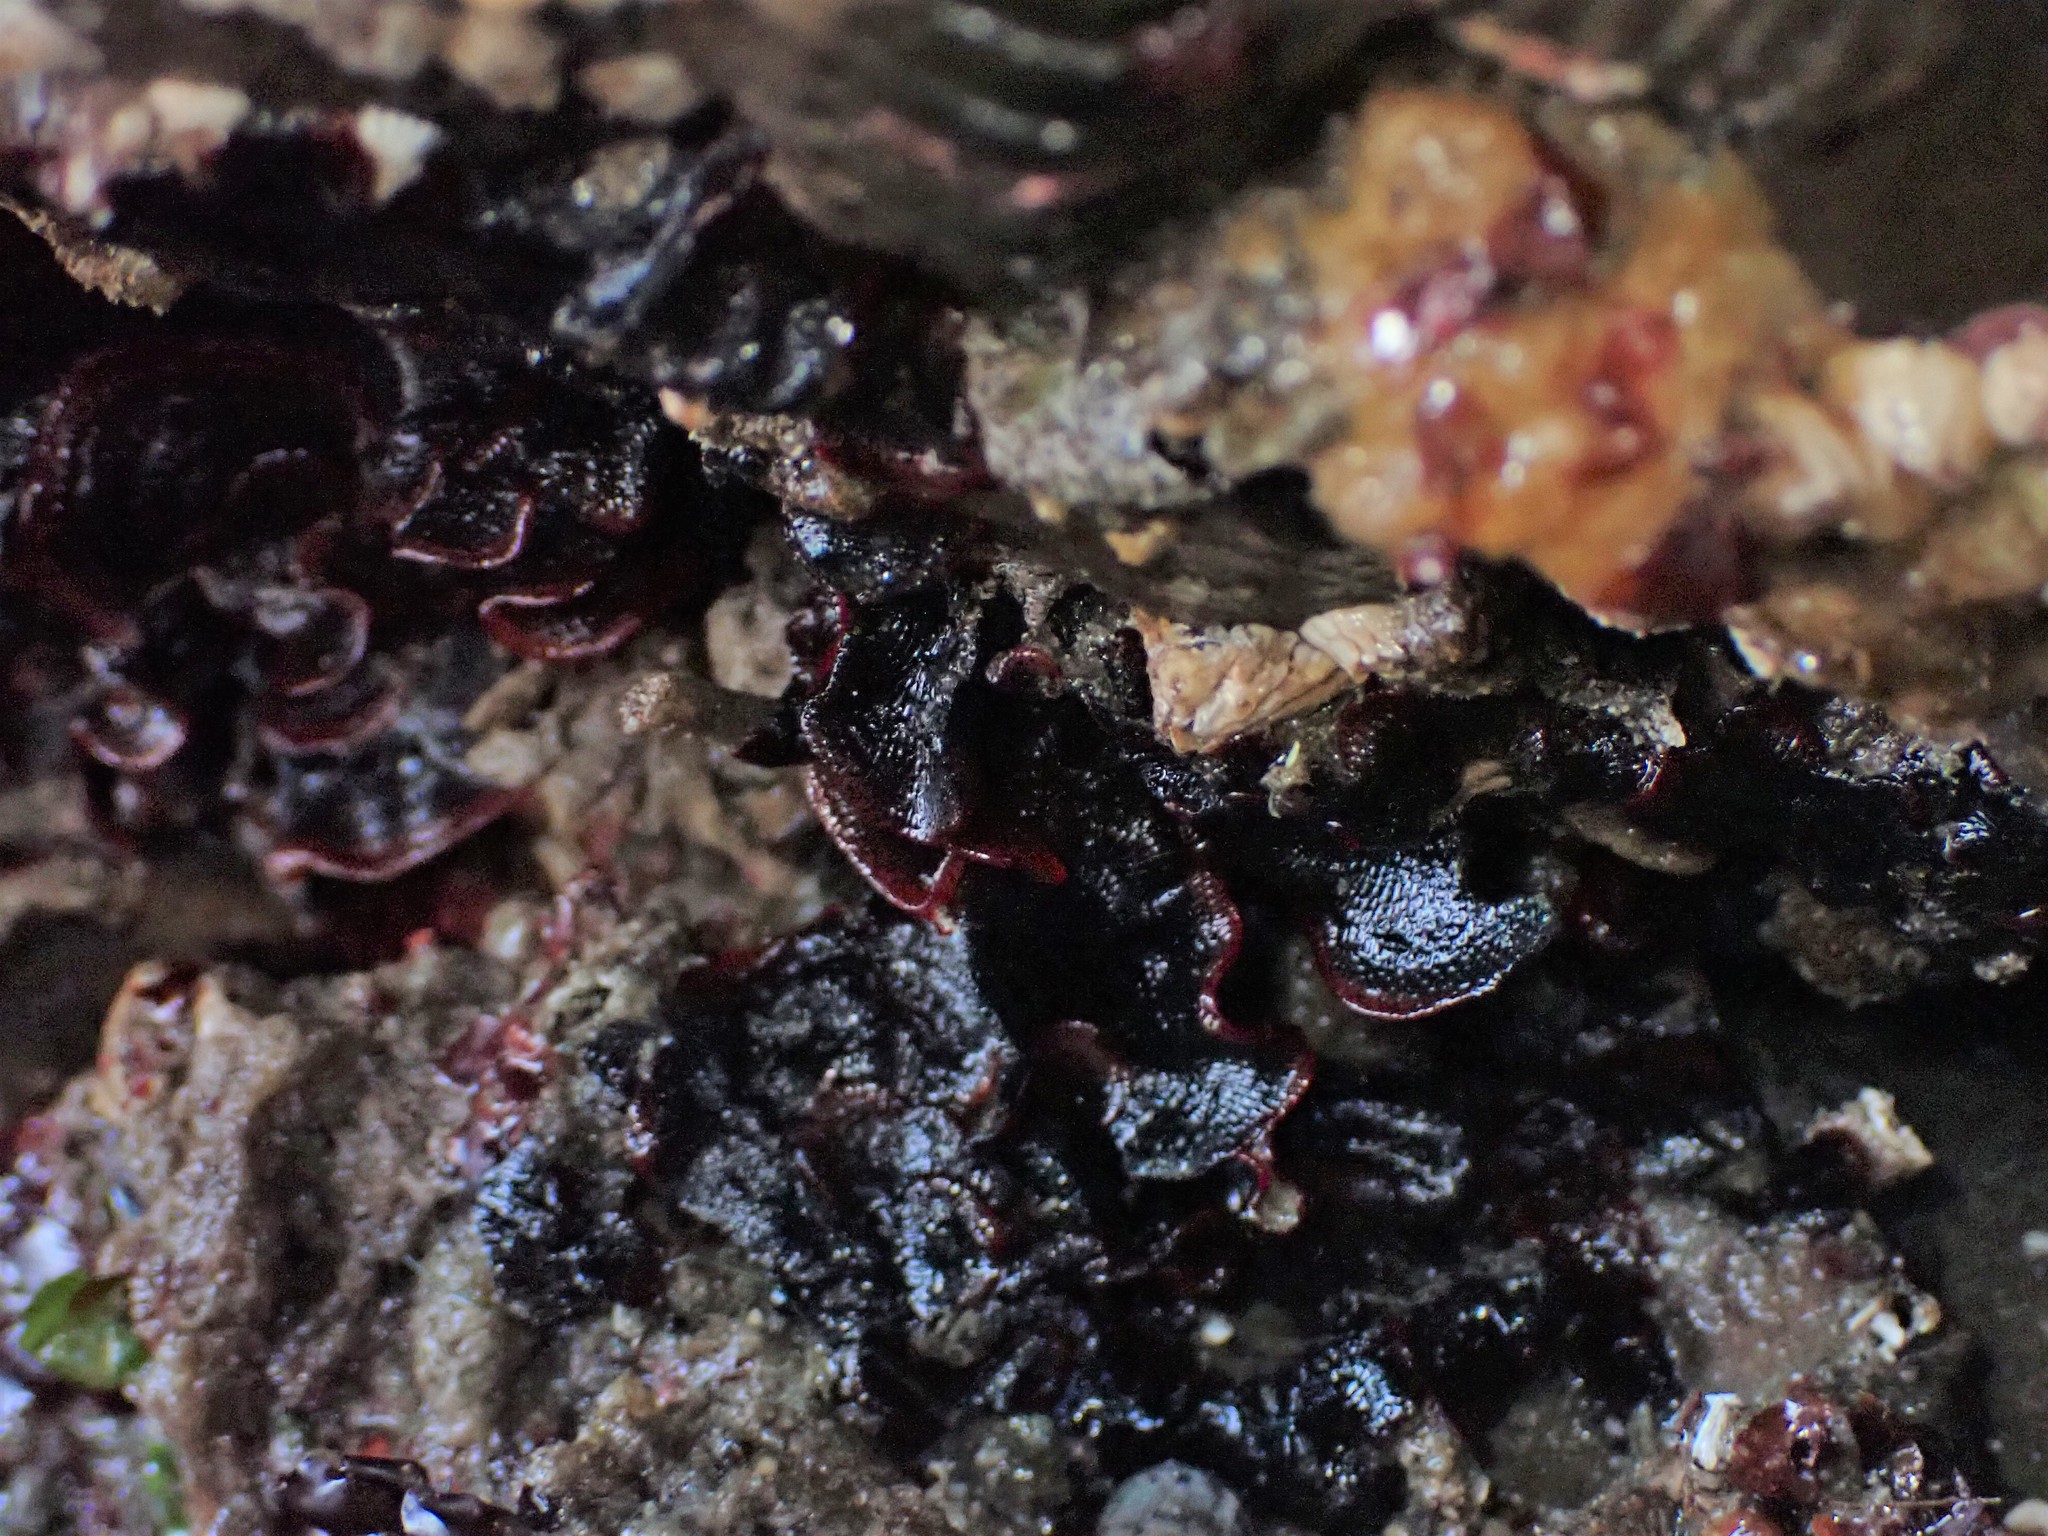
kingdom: Animalia
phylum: Bryozoa
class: Gymnolaemata
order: Cheilostomatida
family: Watersiporidae
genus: Watersipora
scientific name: Watersipora subtorquata
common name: Bryozoan
